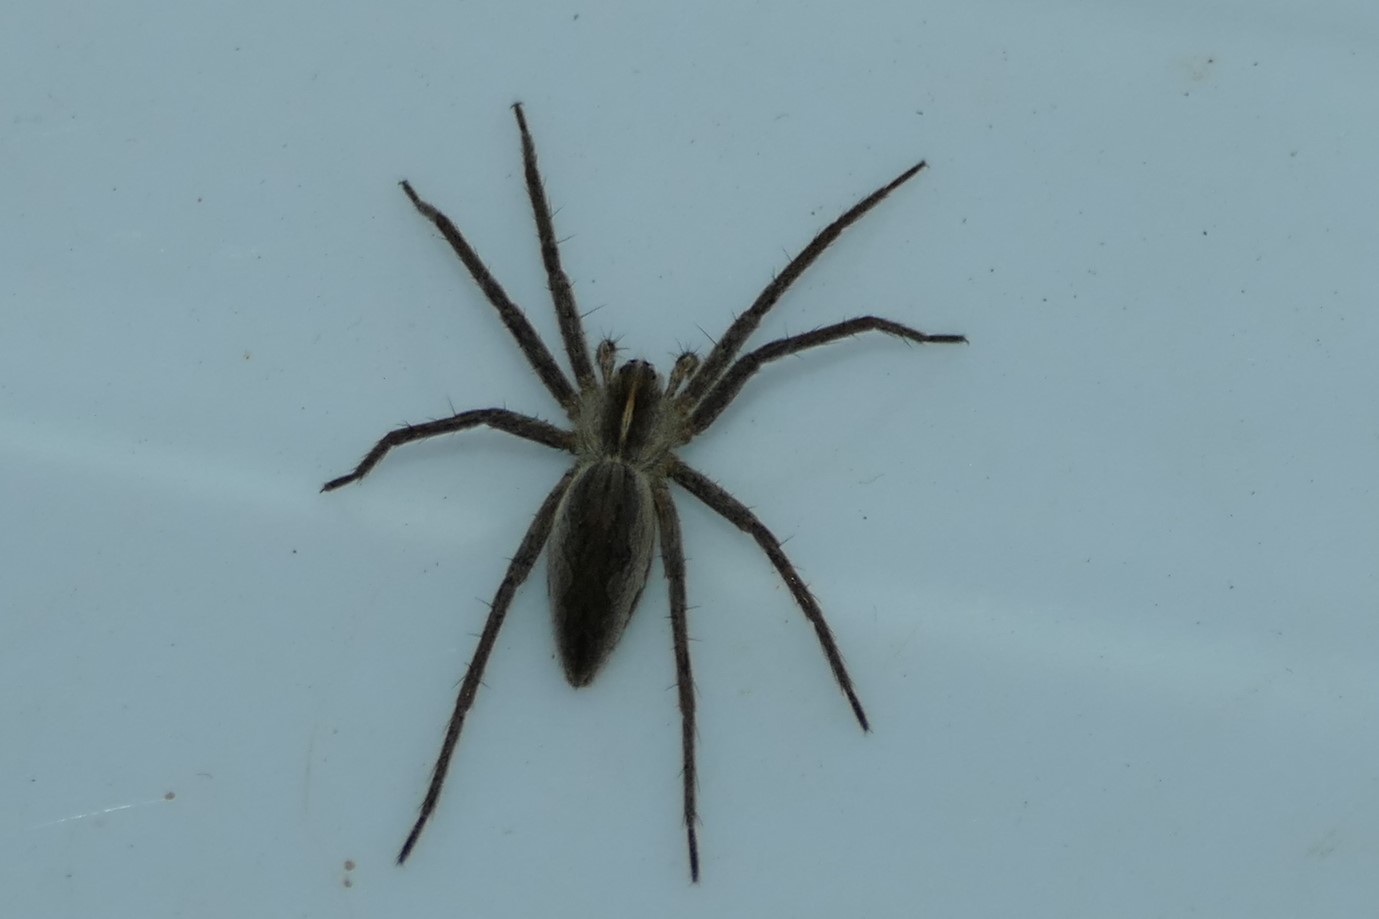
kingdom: Animalia
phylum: Arthropoda
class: Arachnida
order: Araneae
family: Pisauridae
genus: Pisaura
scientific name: Pisaura mirabilis
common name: Tent spider
